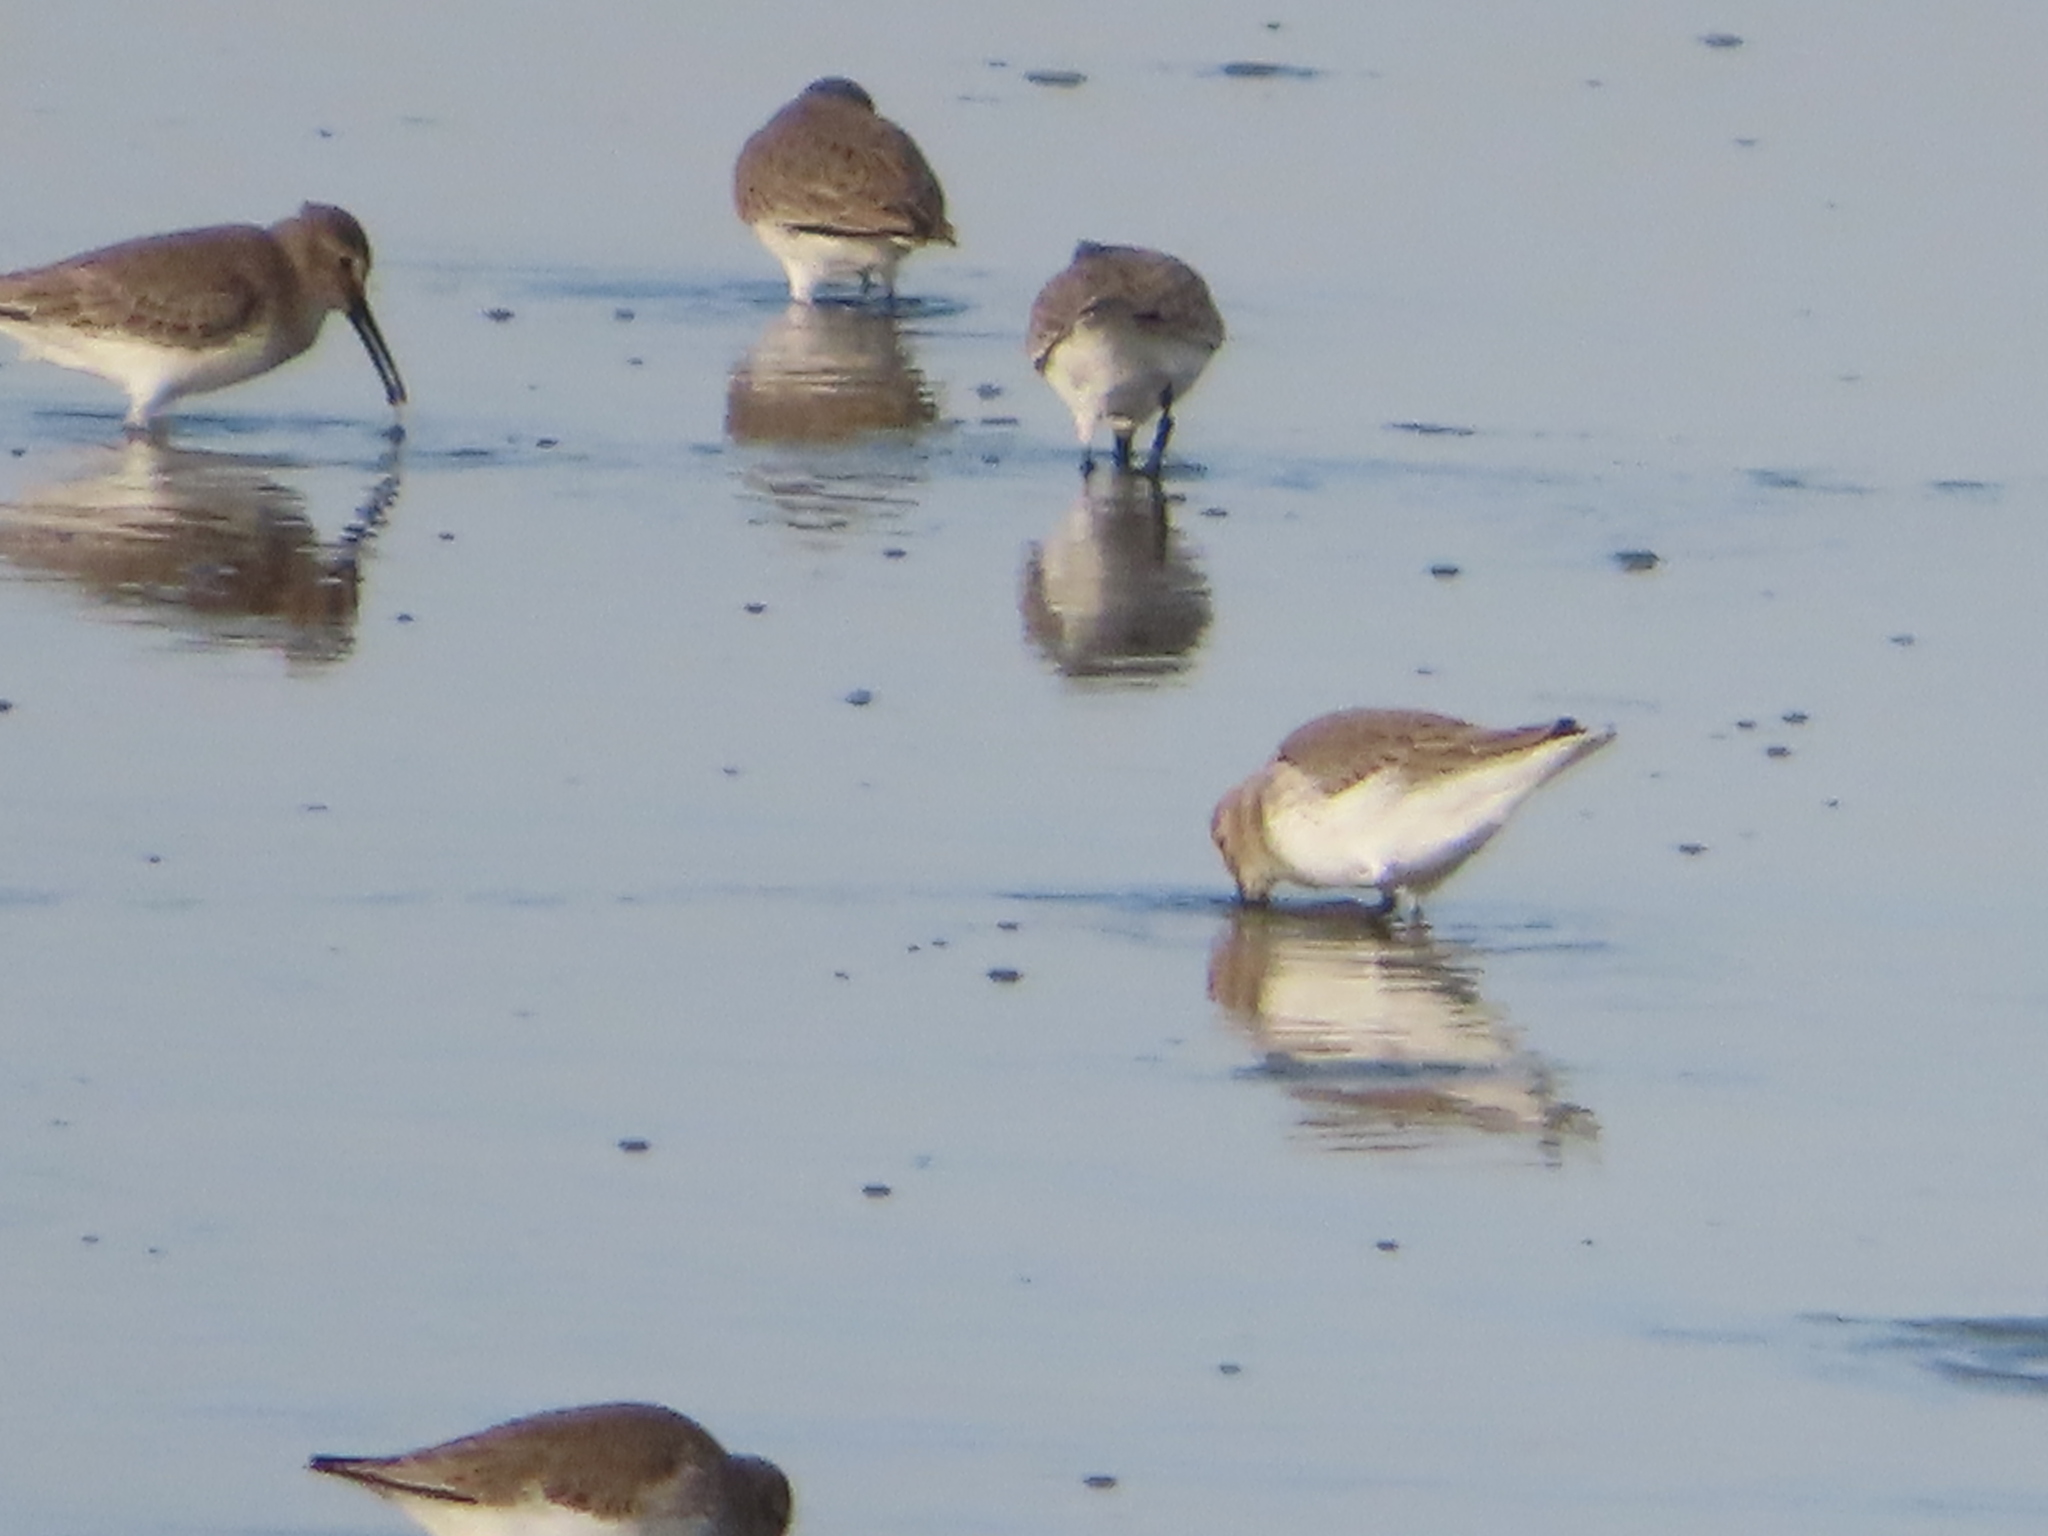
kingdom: Animalia
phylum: Chordata
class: Aves
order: Charadriiformes
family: Scolopacidae
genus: Calidris
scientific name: Calidris alpina
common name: Dunlin
